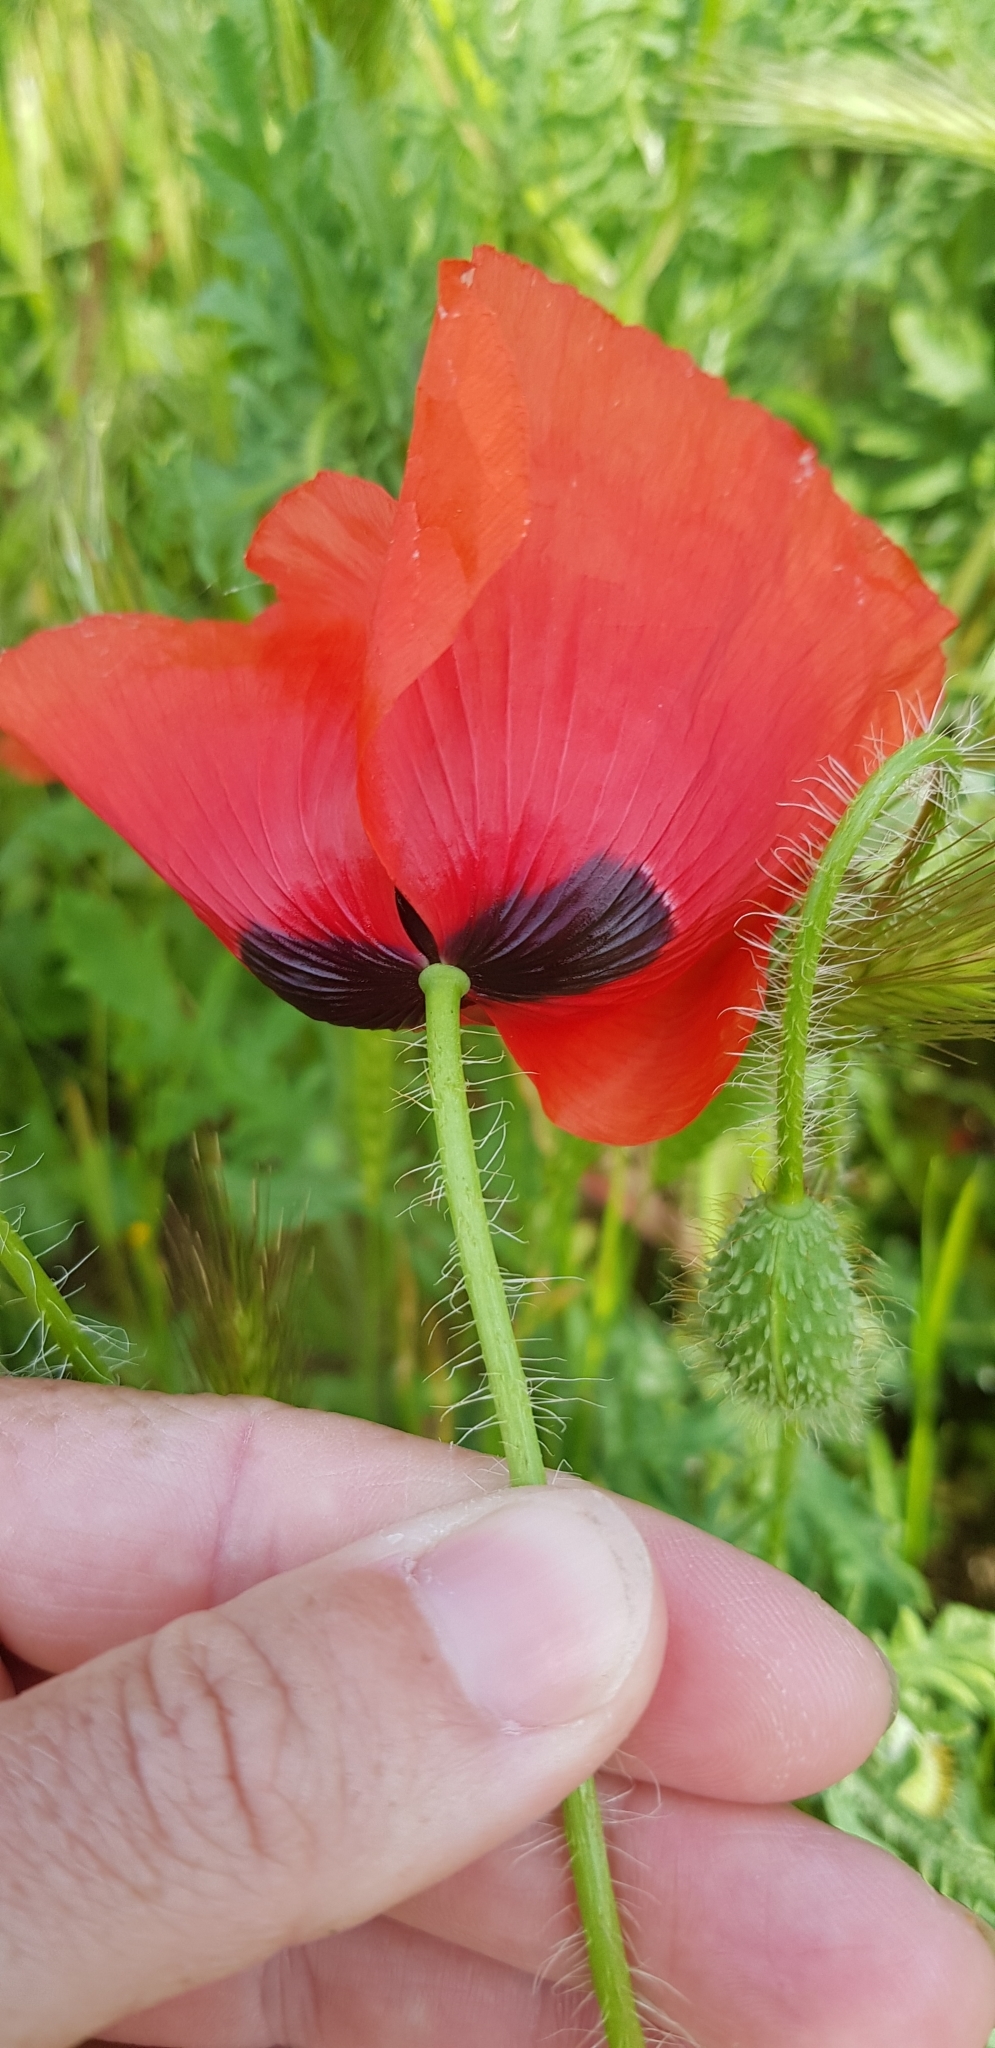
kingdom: Plantae
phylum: Tracheophyta
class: Magnoliopsida
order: Ranunculales
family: Papaveraceae
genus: Papaver
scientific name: Papaver rhoeas
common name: Corn poppy
